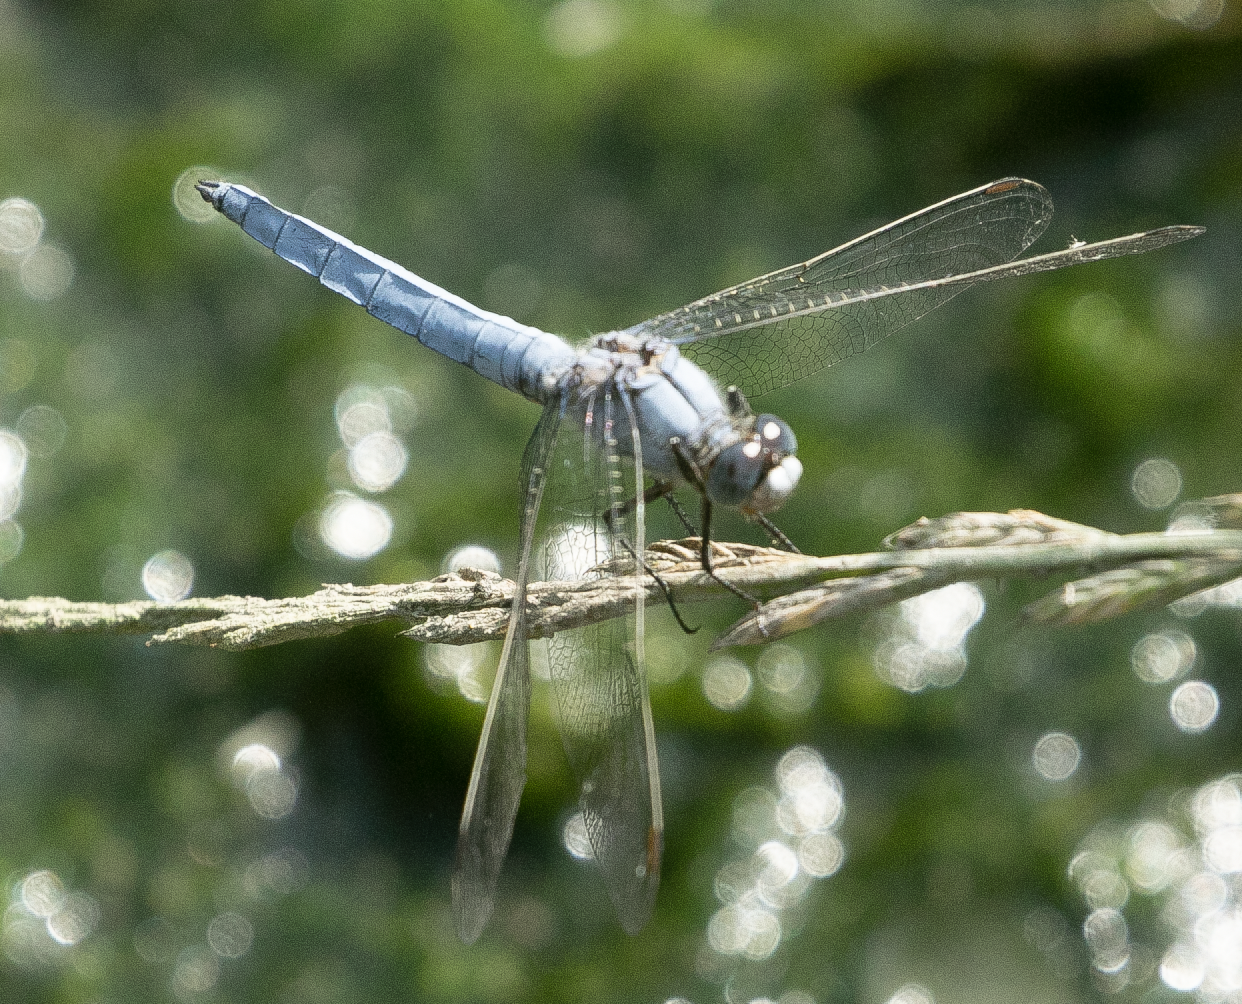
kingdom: Animalia
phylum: Arthropoda
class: Insecta
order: Odonata
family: Libellulidae
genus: Orthetrum
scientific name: Orthetrum brunneum
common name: Southern skimmer
